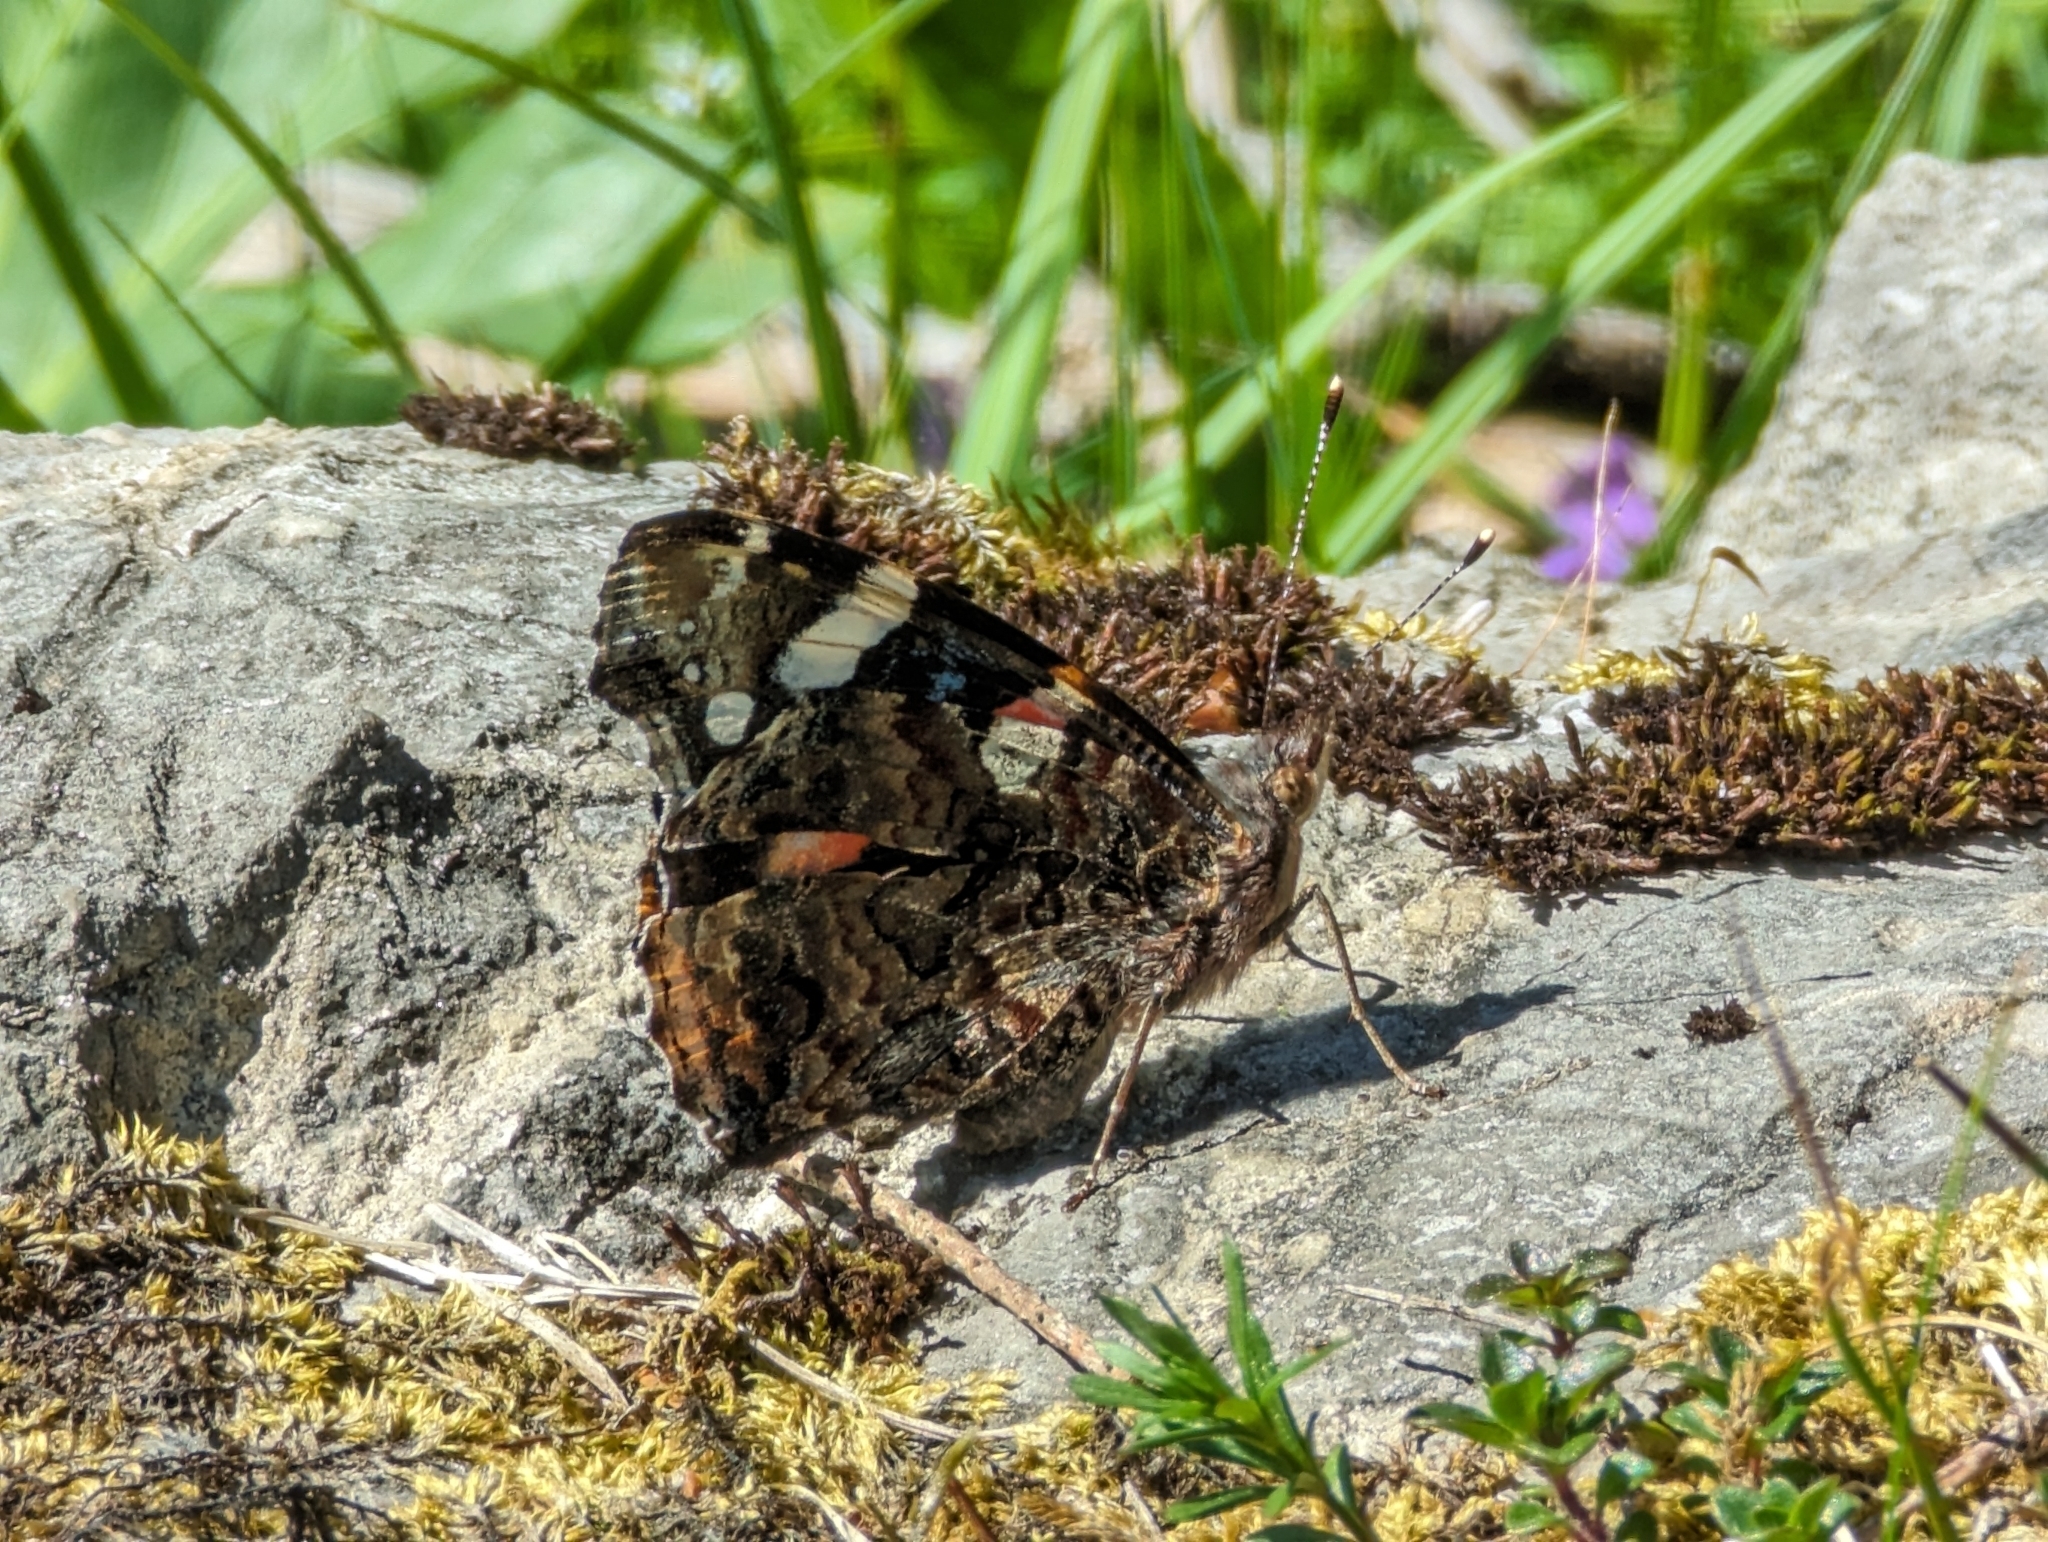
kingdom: Animalia
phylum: Arthropoda
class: Insecta
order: Lepidoptera
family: Nymphalidae
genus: Vanessa
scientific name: Vanessa atalanta
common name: Red admiral
